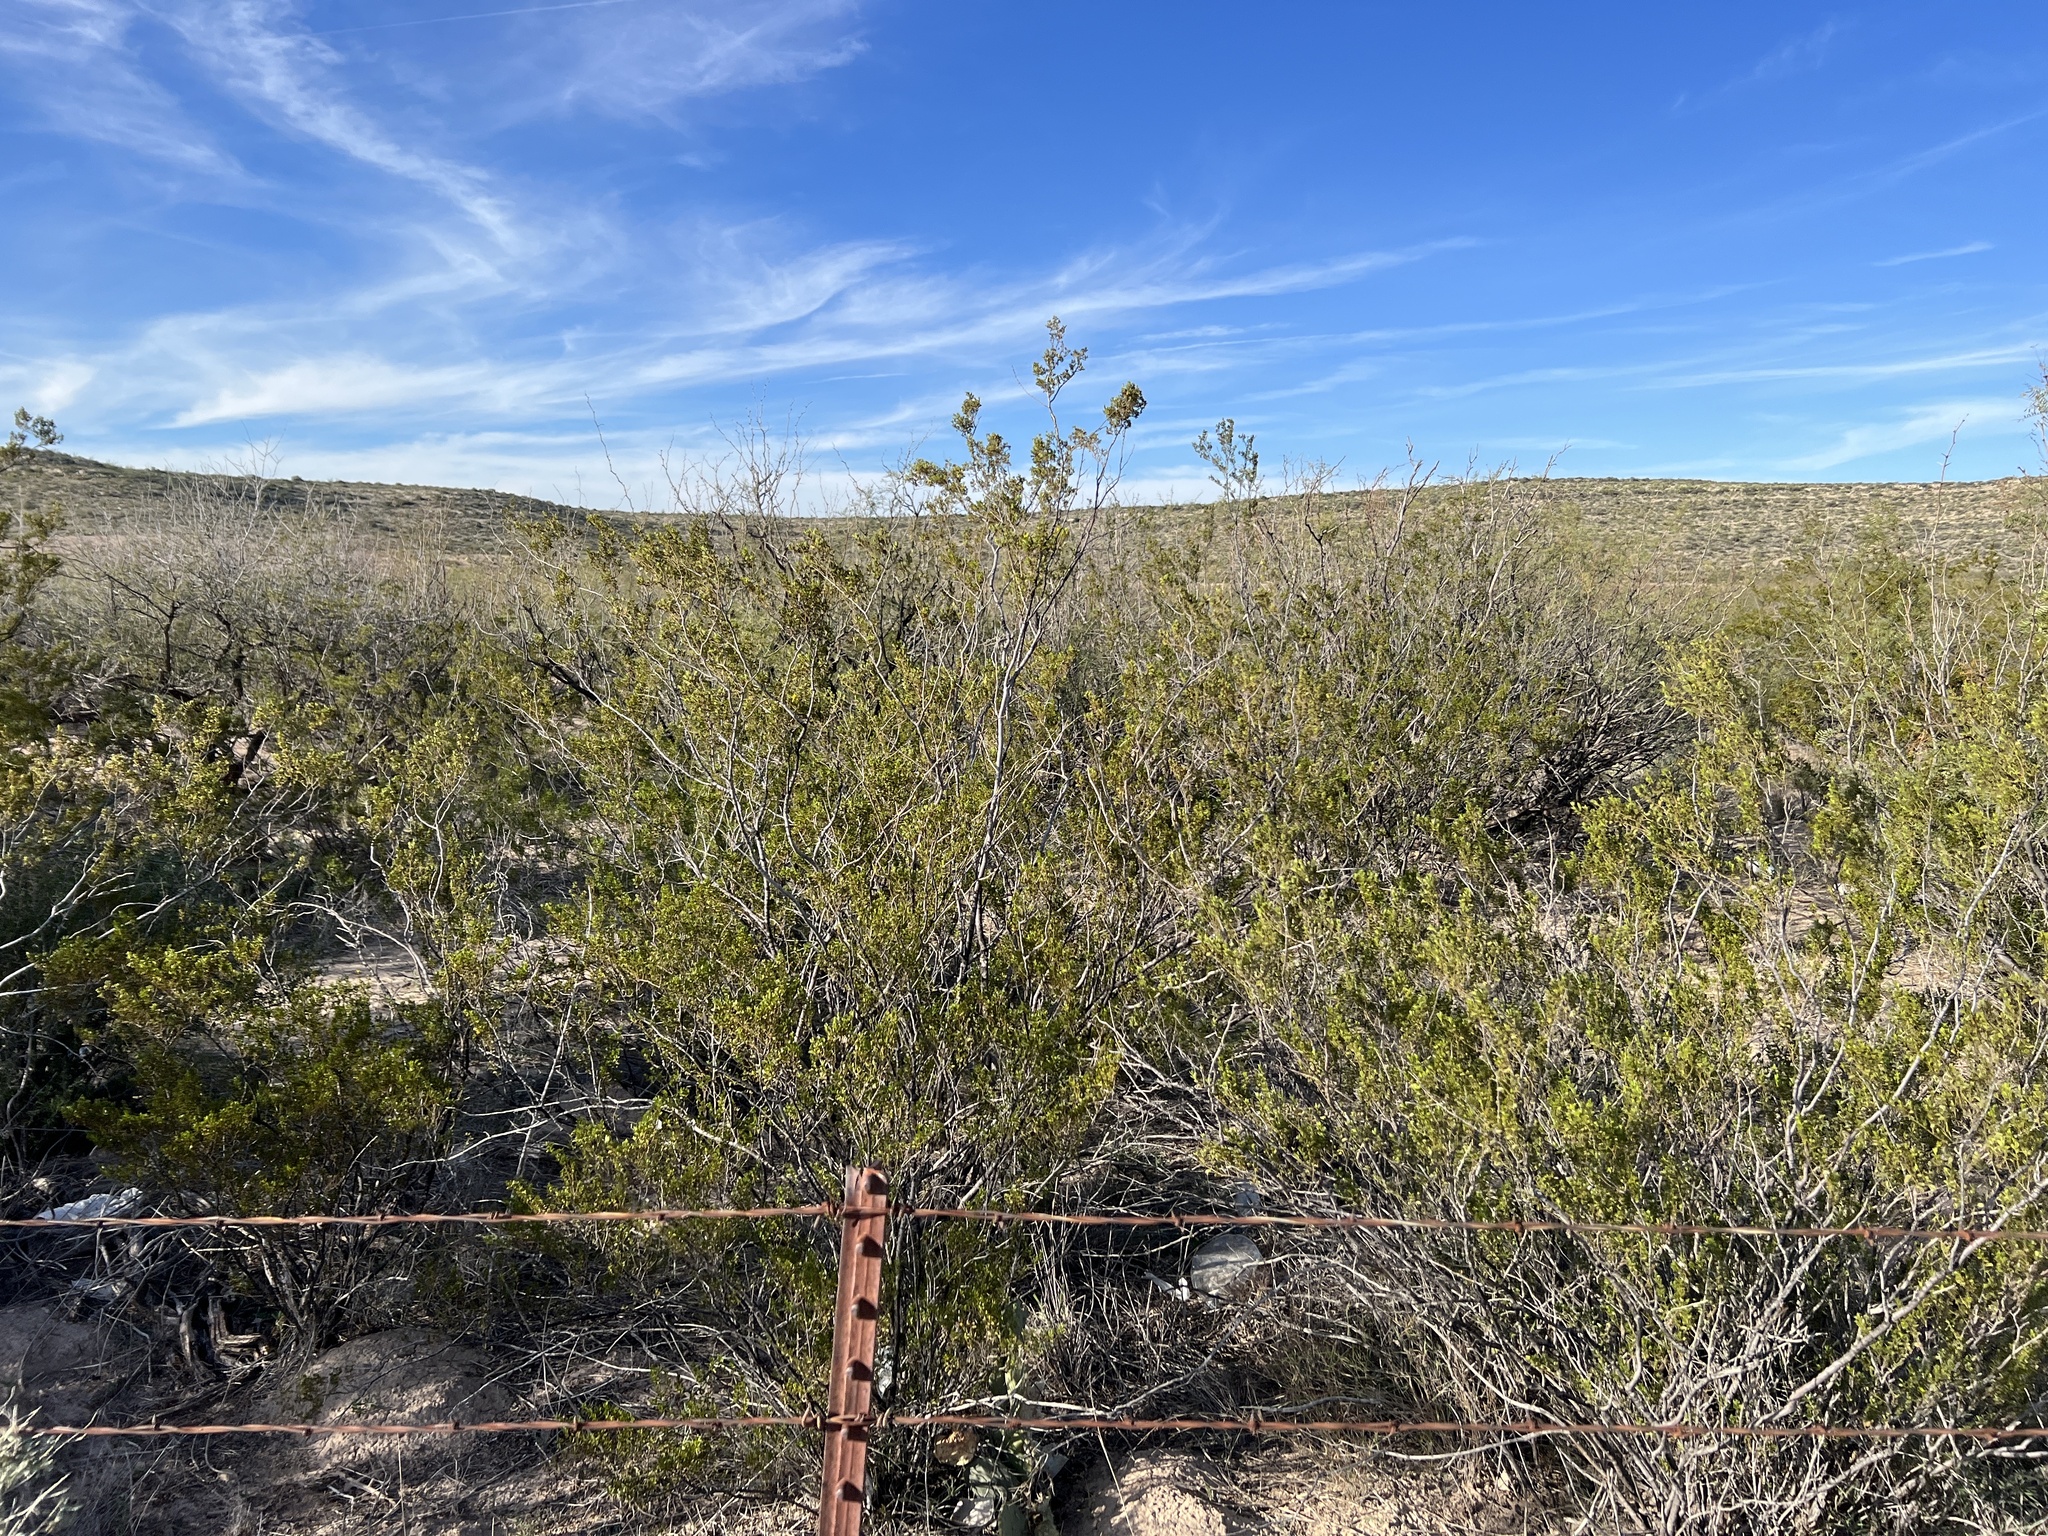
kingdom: Plantae
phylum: Tracheophyta
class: Magnoliopsida
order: Zygophyllales
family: Zygophyllaceae
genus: Larrea
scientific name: Larrea tridentata
